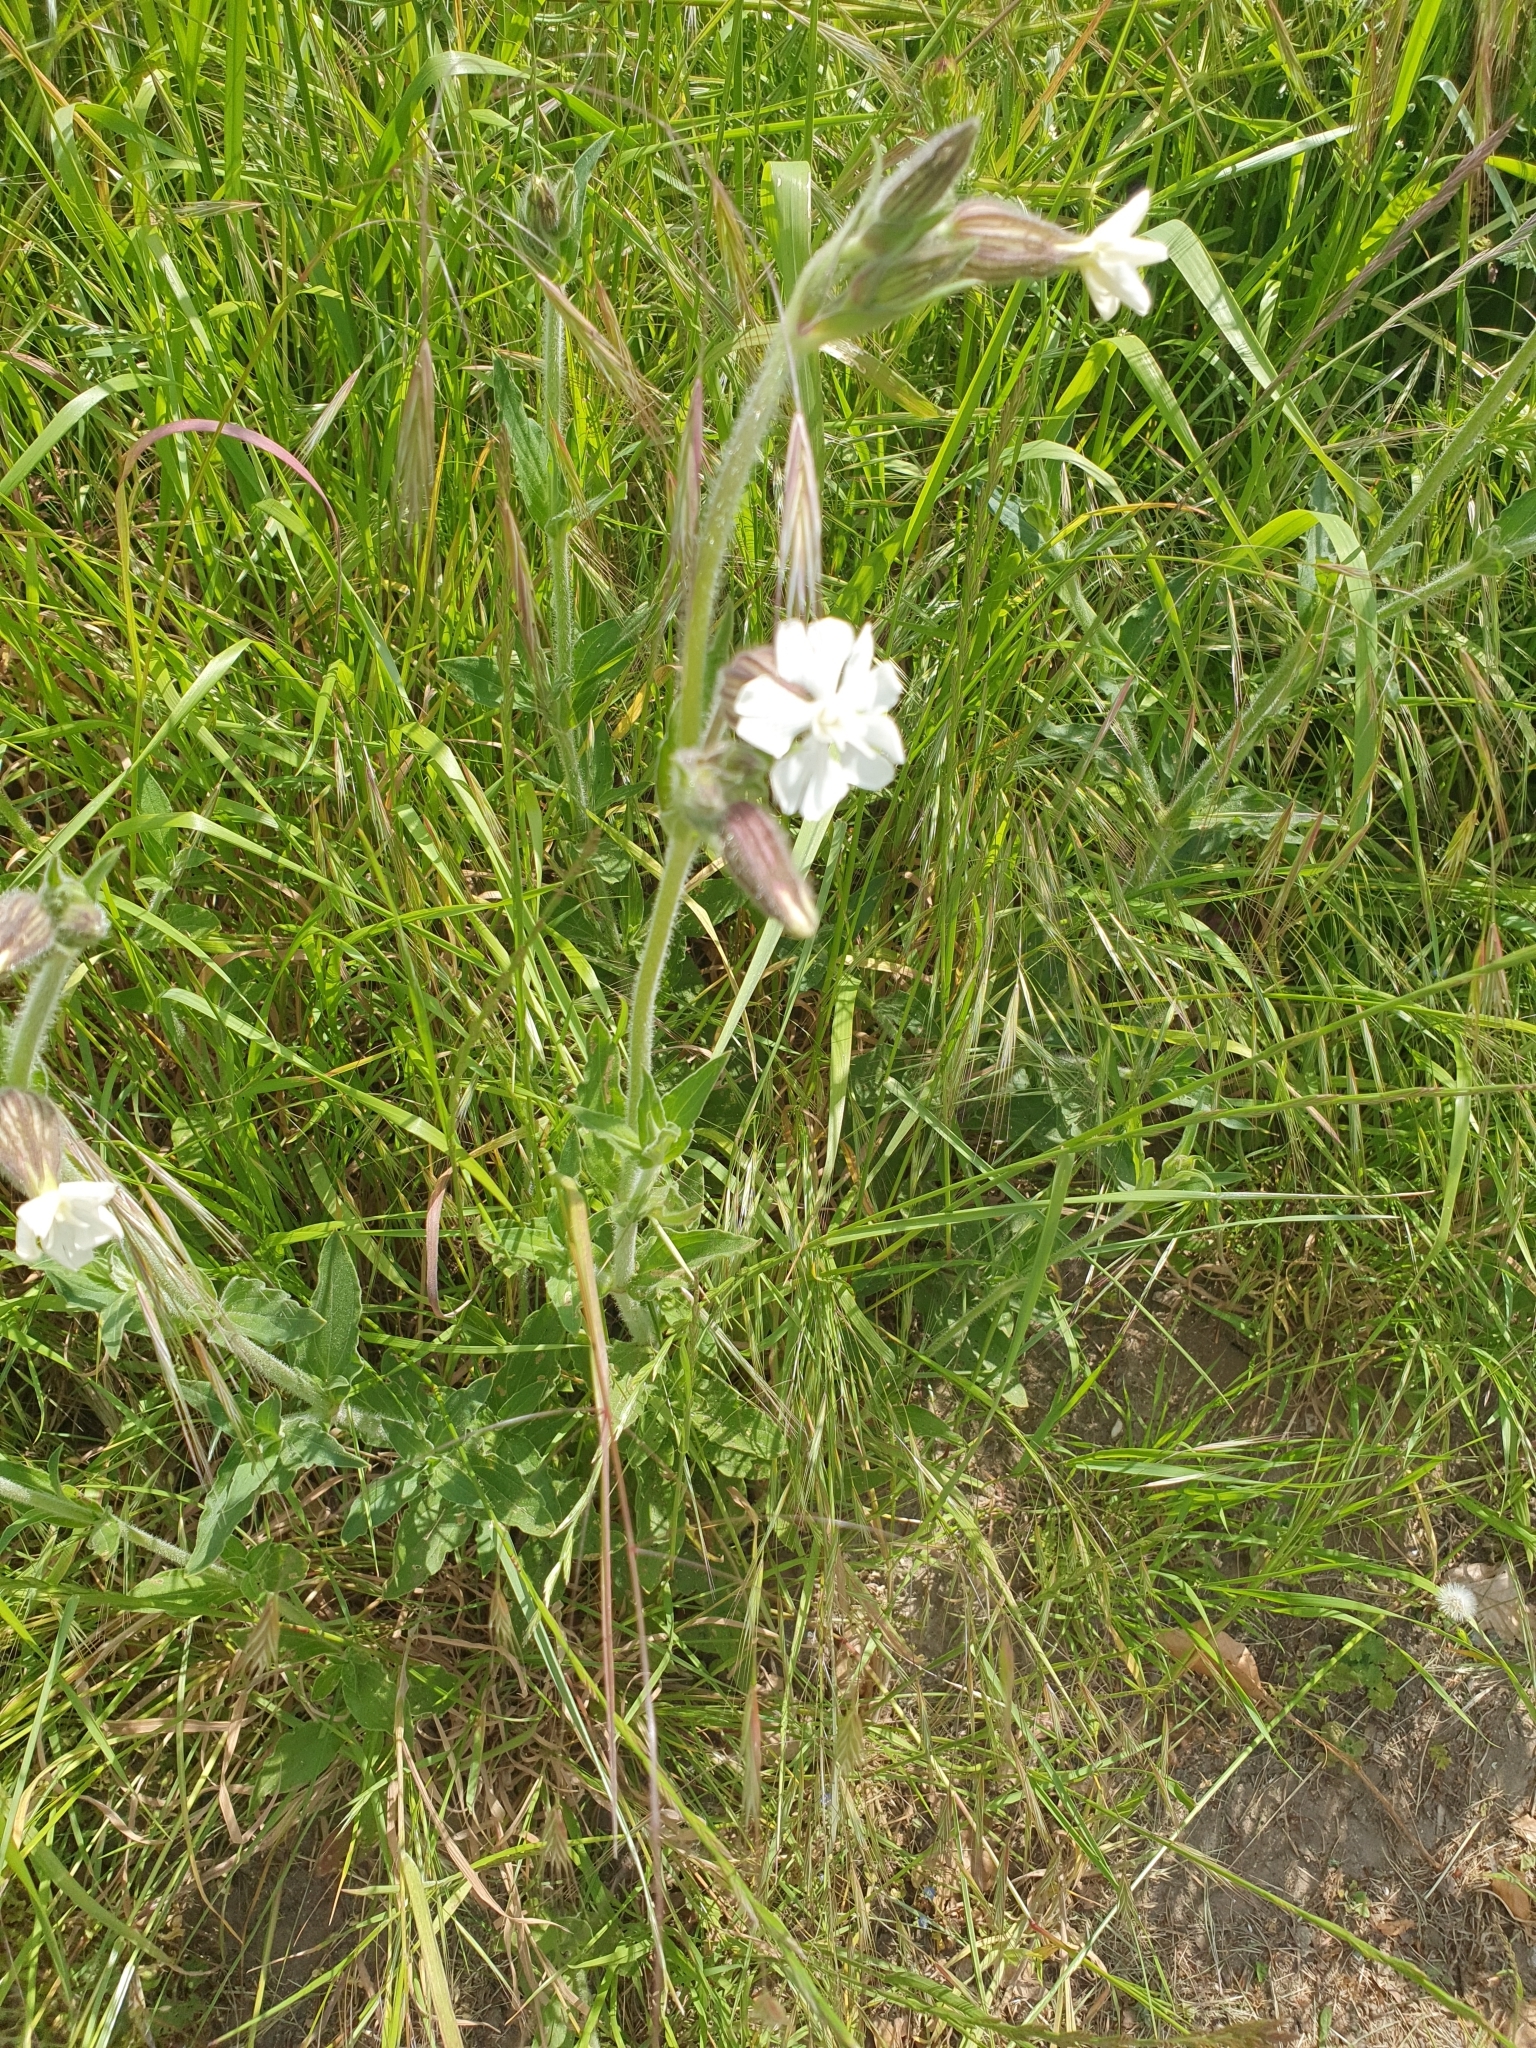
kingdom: Plantae
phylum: Tracheophyta
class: Magnoliopsida
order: Caryophyllales
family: Caryophyllaceae
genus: Silene
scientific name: Silene latifolia
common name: White campion
